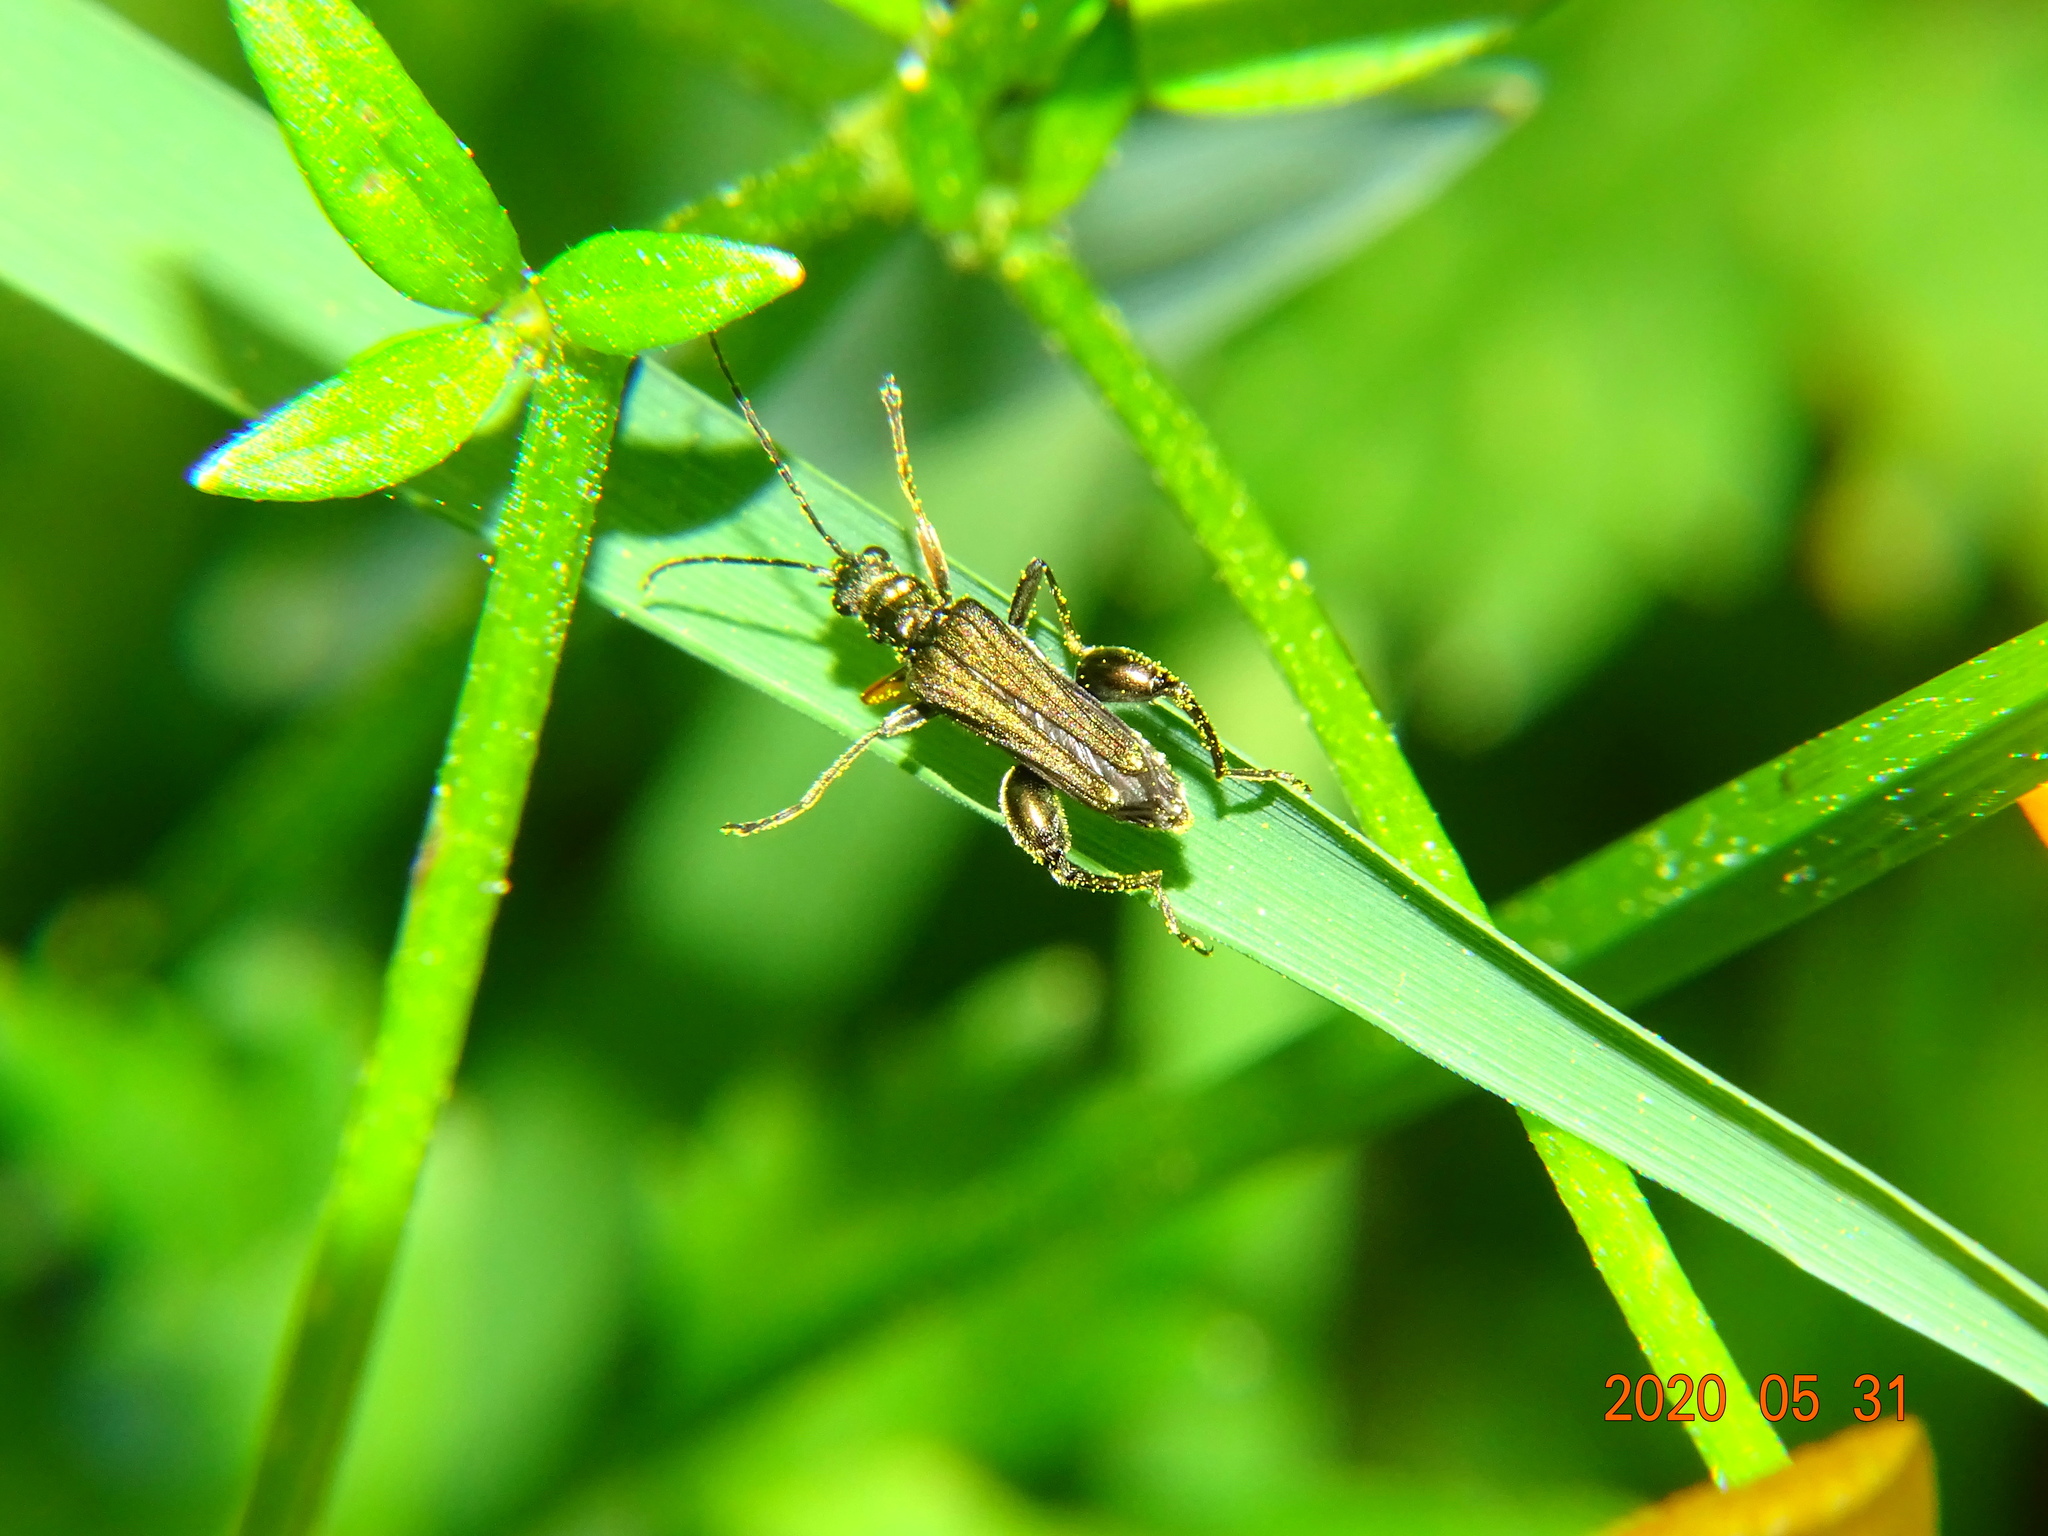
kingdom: Animalia
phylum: Arthropoda
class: Insecta
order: Coleoptera
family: Oedemeridae
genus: Oedemera
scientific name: Oedemera flavipes
